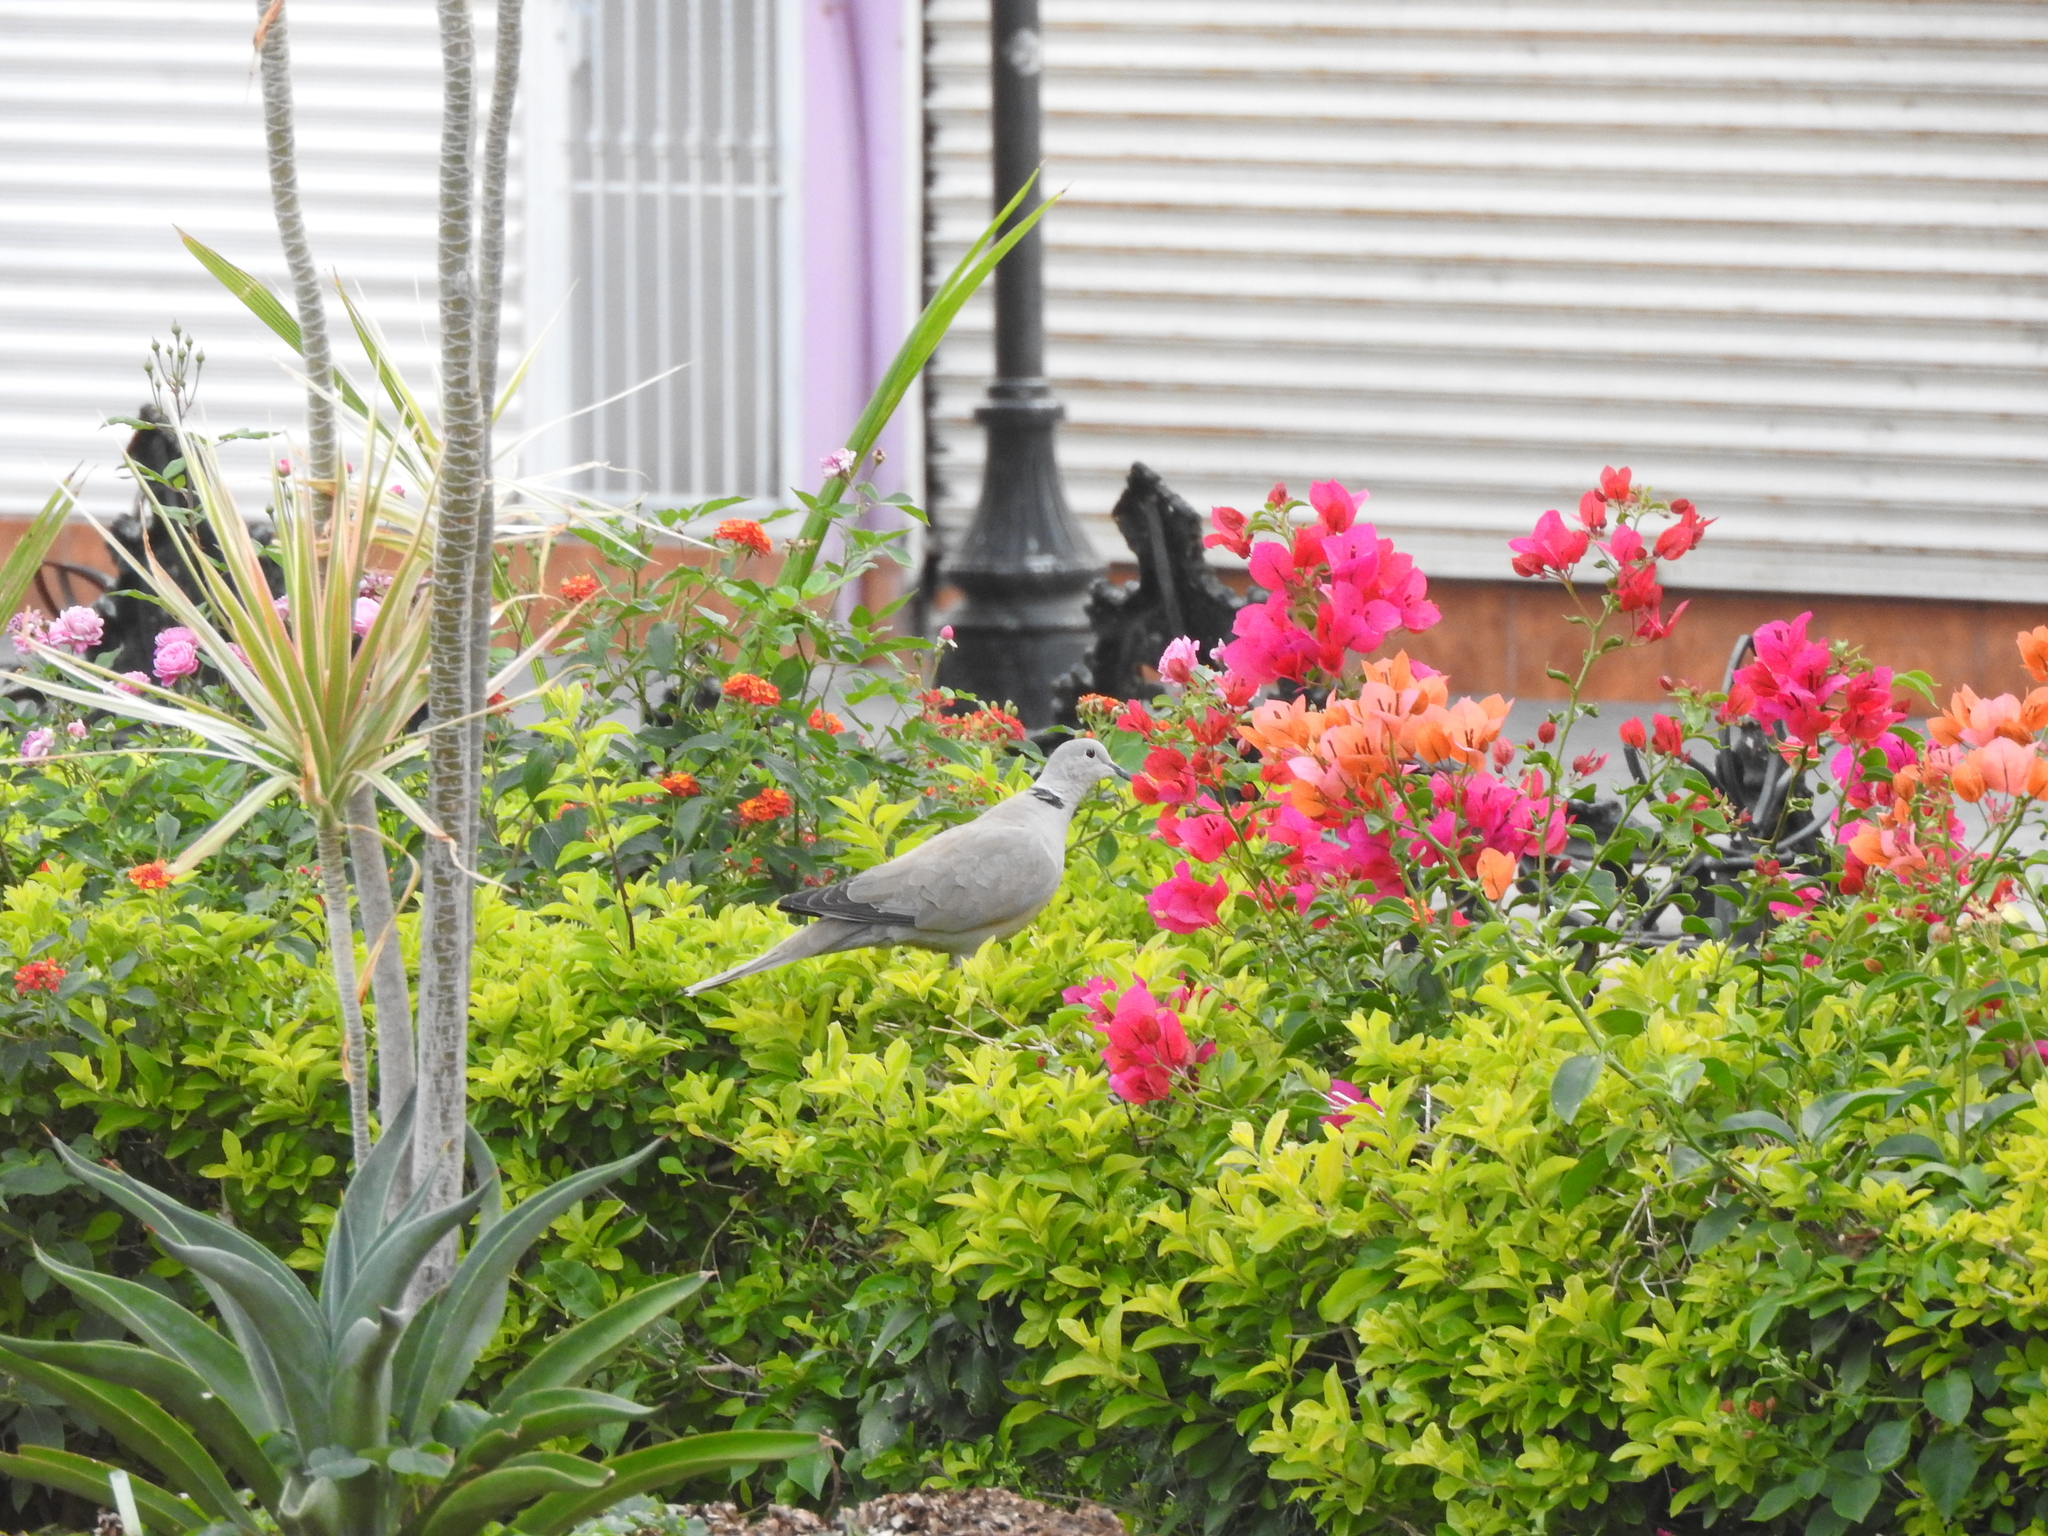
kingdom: Animalia
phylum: Chordata
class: Aves
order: Columbiformes
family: Columbidae
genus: Streptopelia
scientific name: Streptopelia decaocto
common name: Eurasian collared dove
